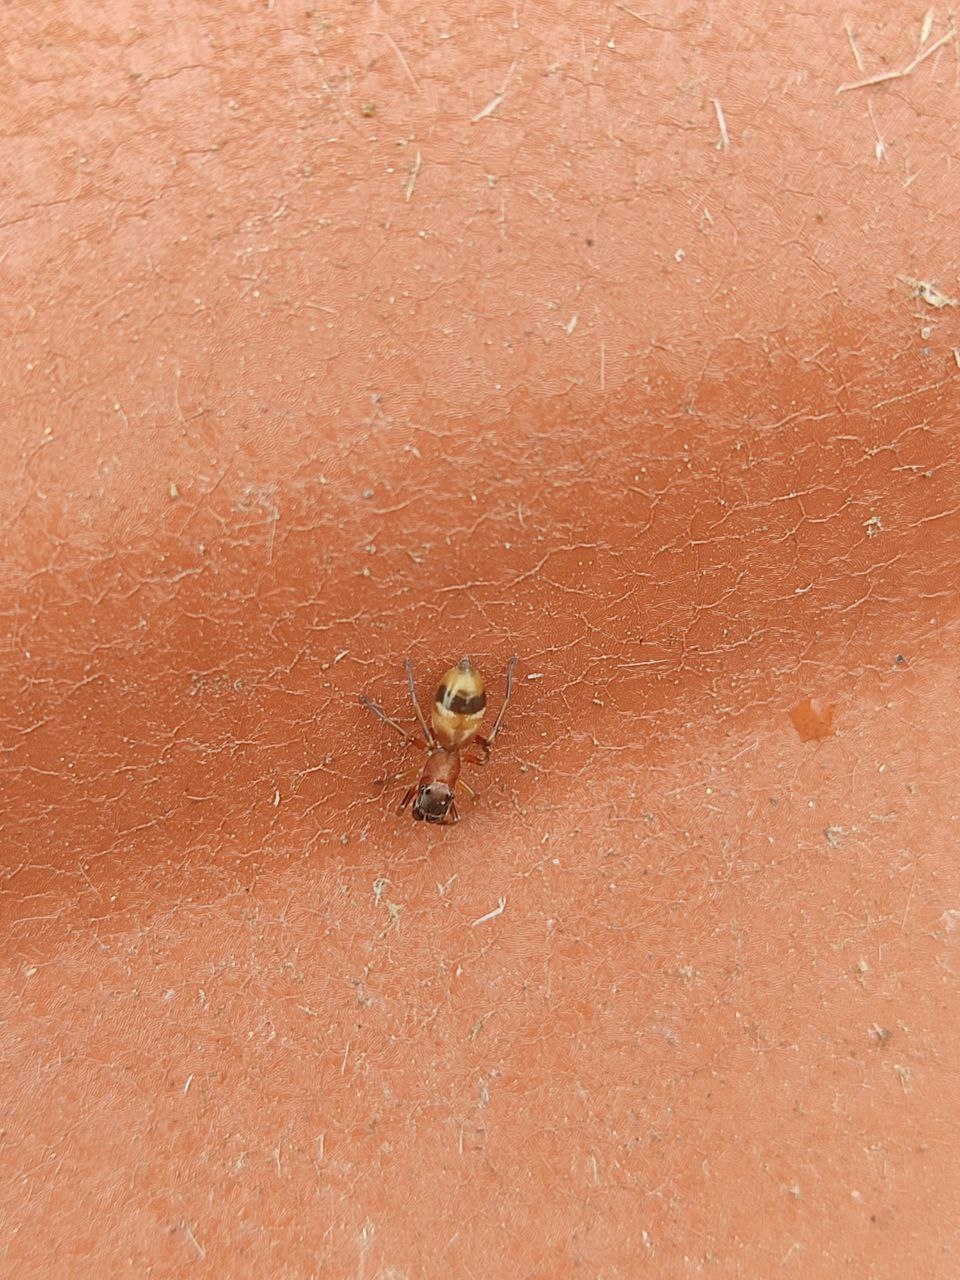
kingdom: Animalia
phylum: Arthropoda
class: Arachnida
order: Araneae
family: Salticidae
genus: Myrmarachne
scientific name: Myrmarachne formicaria
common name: Ant mimic jumping spider
